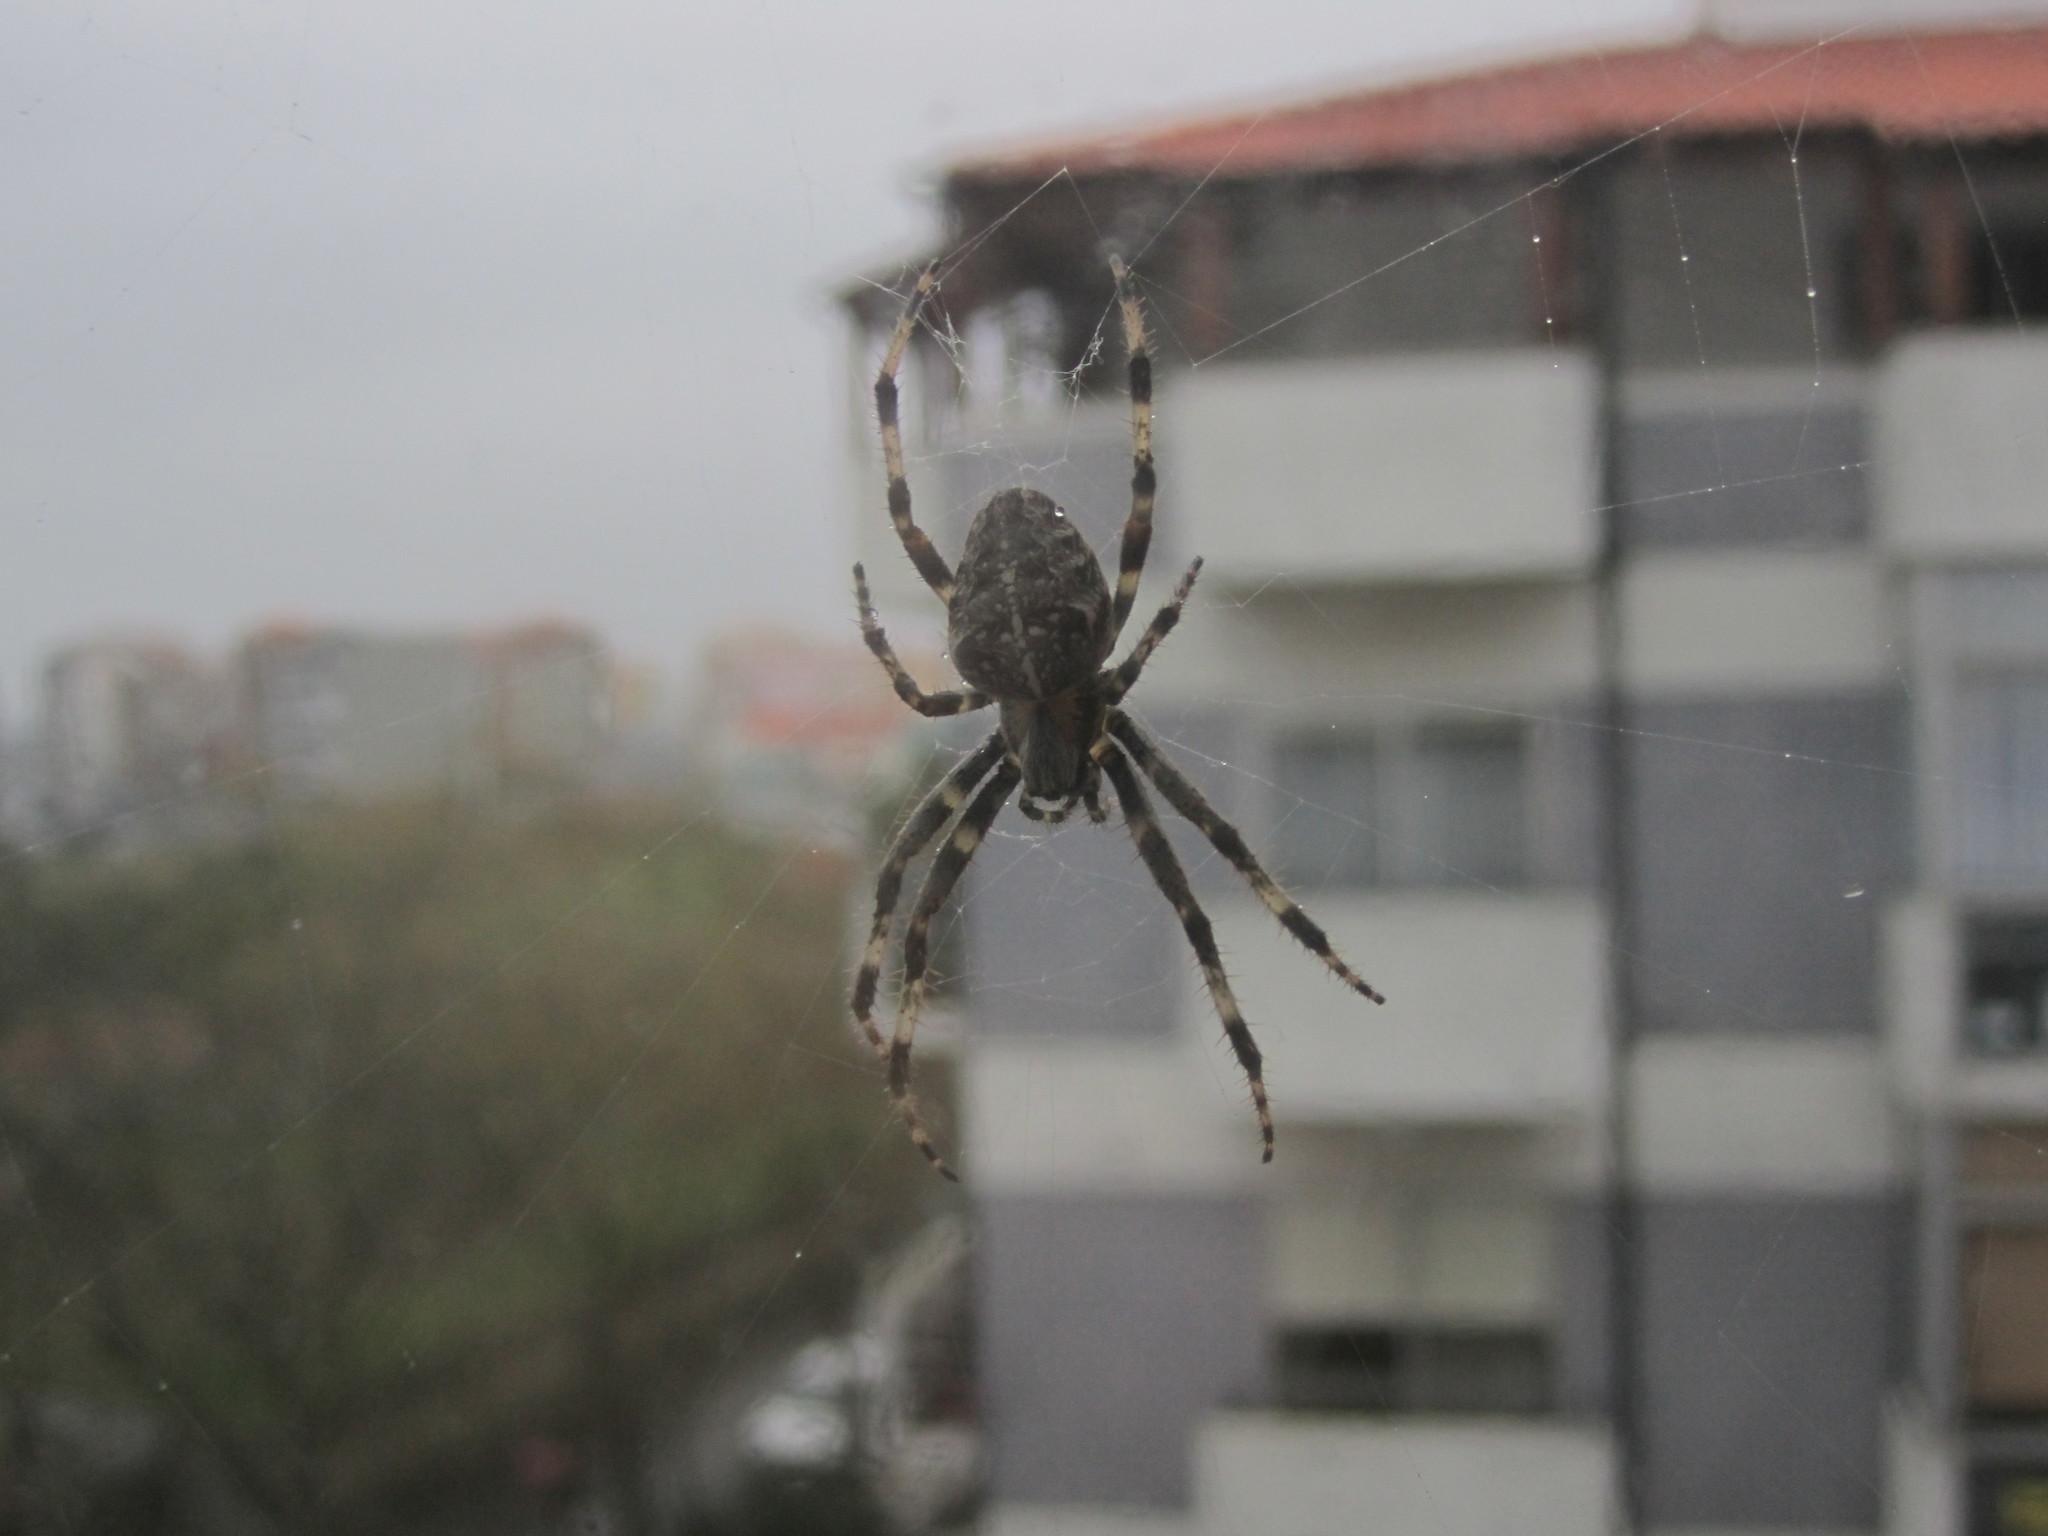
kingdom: Animalia
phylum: Arthropoda
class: Arachnida
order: Araneae
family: Araneidae
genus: Araneus
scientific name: Araneus diadematus
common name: Cross orbweaver
